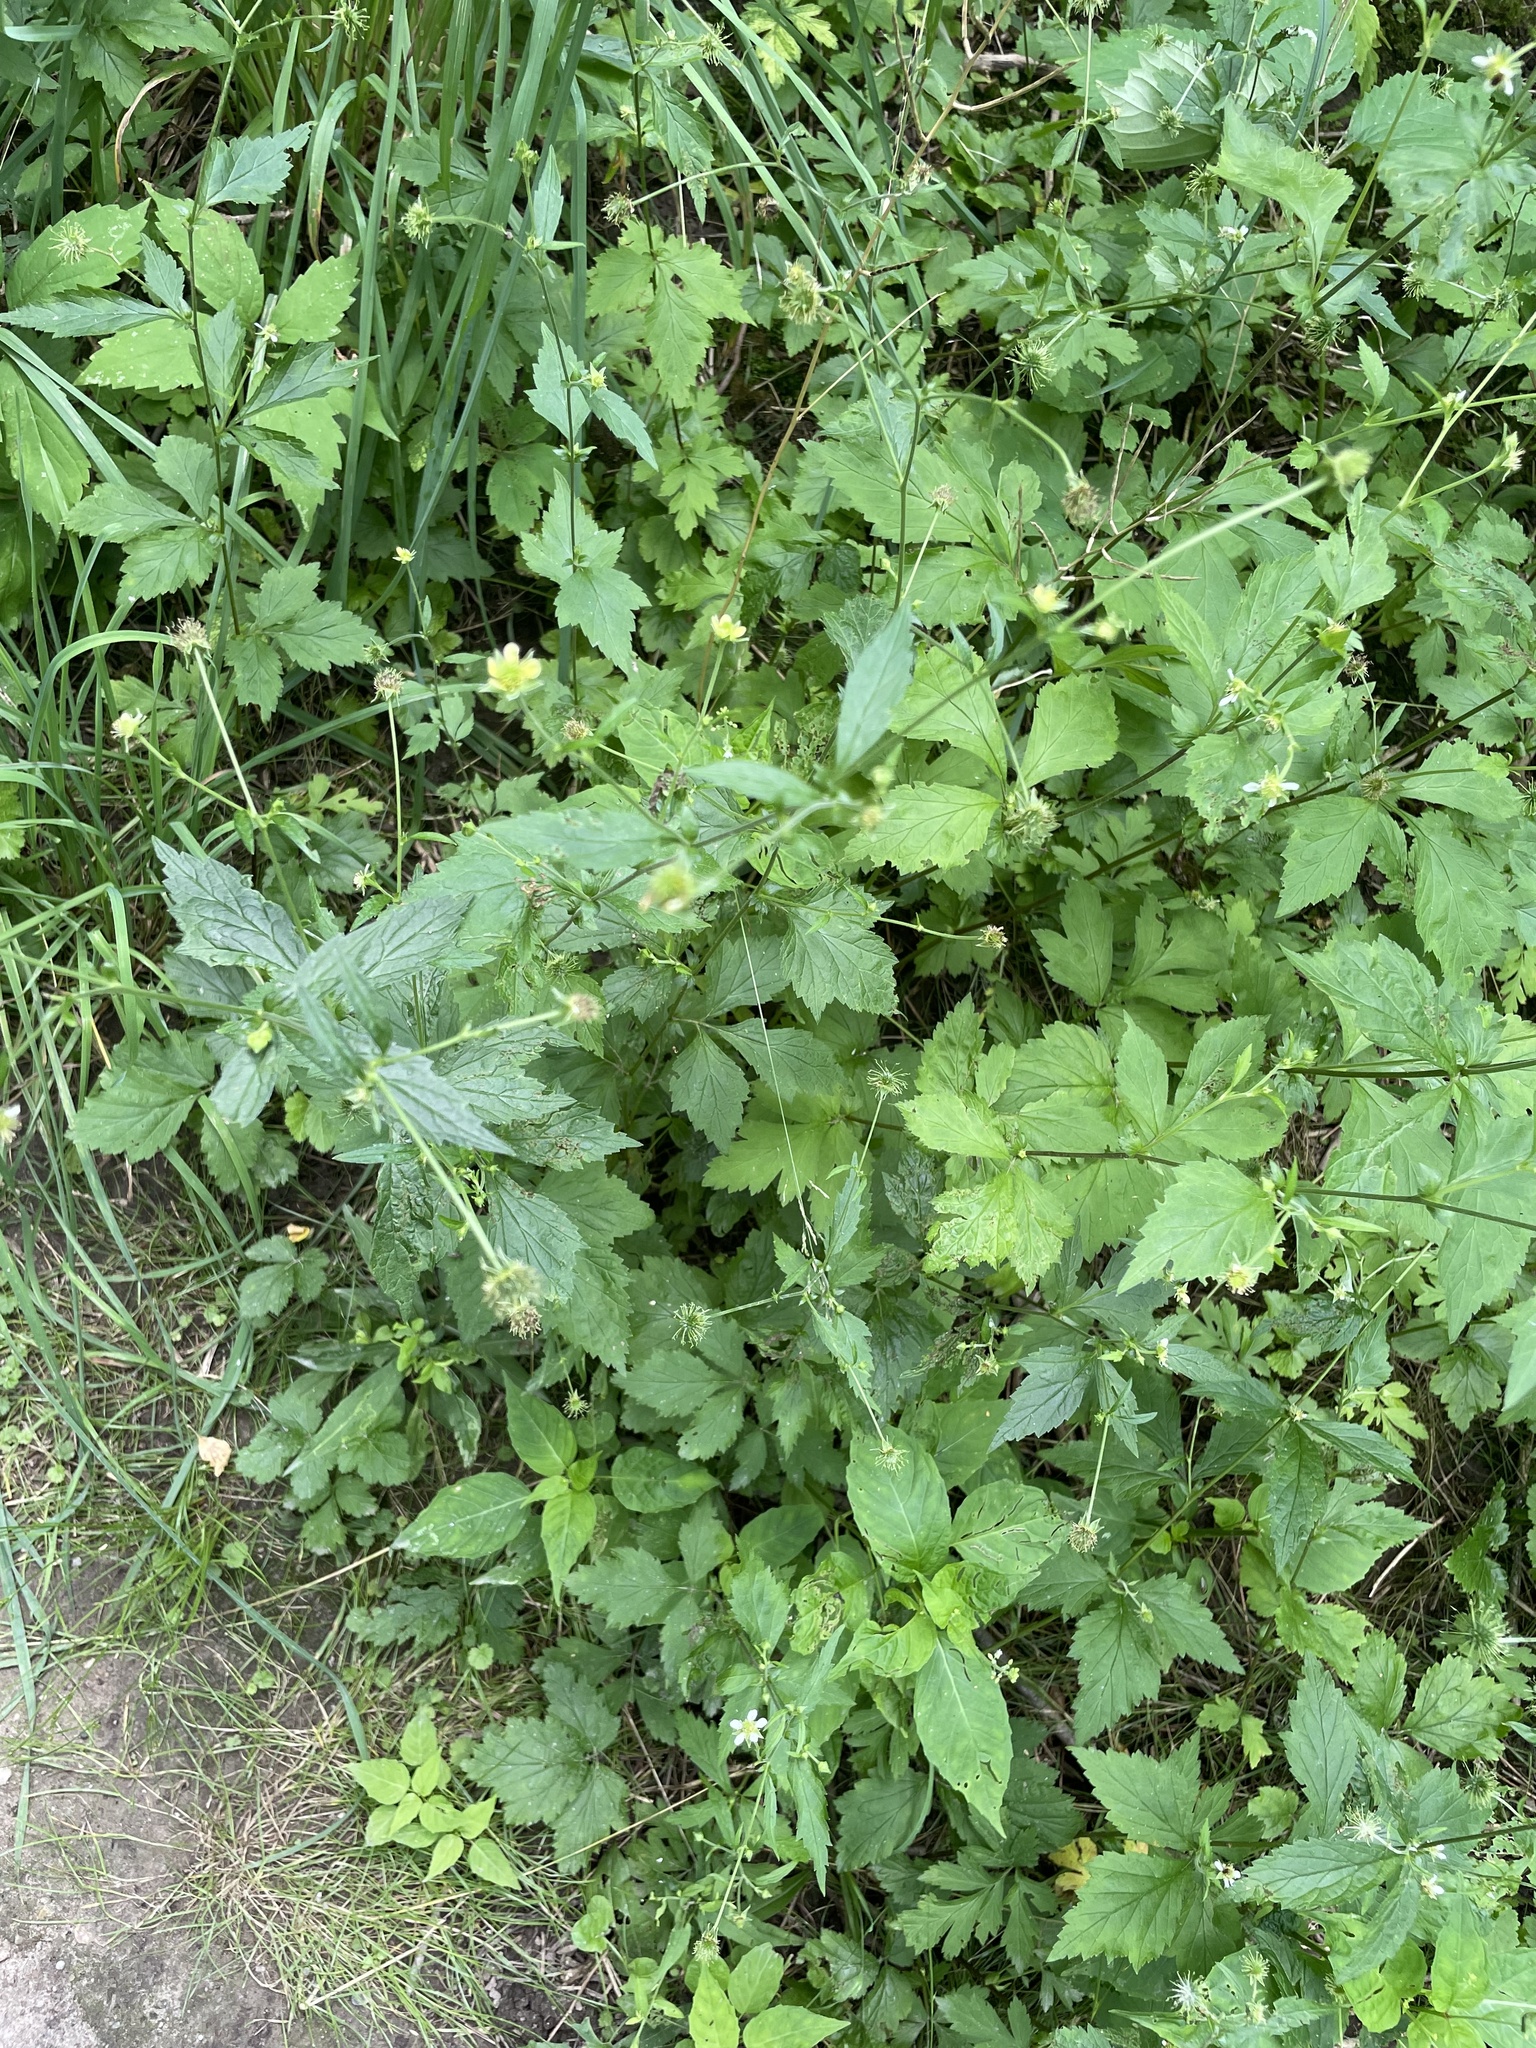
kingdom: Plantae
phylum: Tracheophyta
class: Magnoliopsida
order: Rosales
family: Rosaceae
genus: Geum
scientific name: Geum catlingii
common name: Catling's avens
